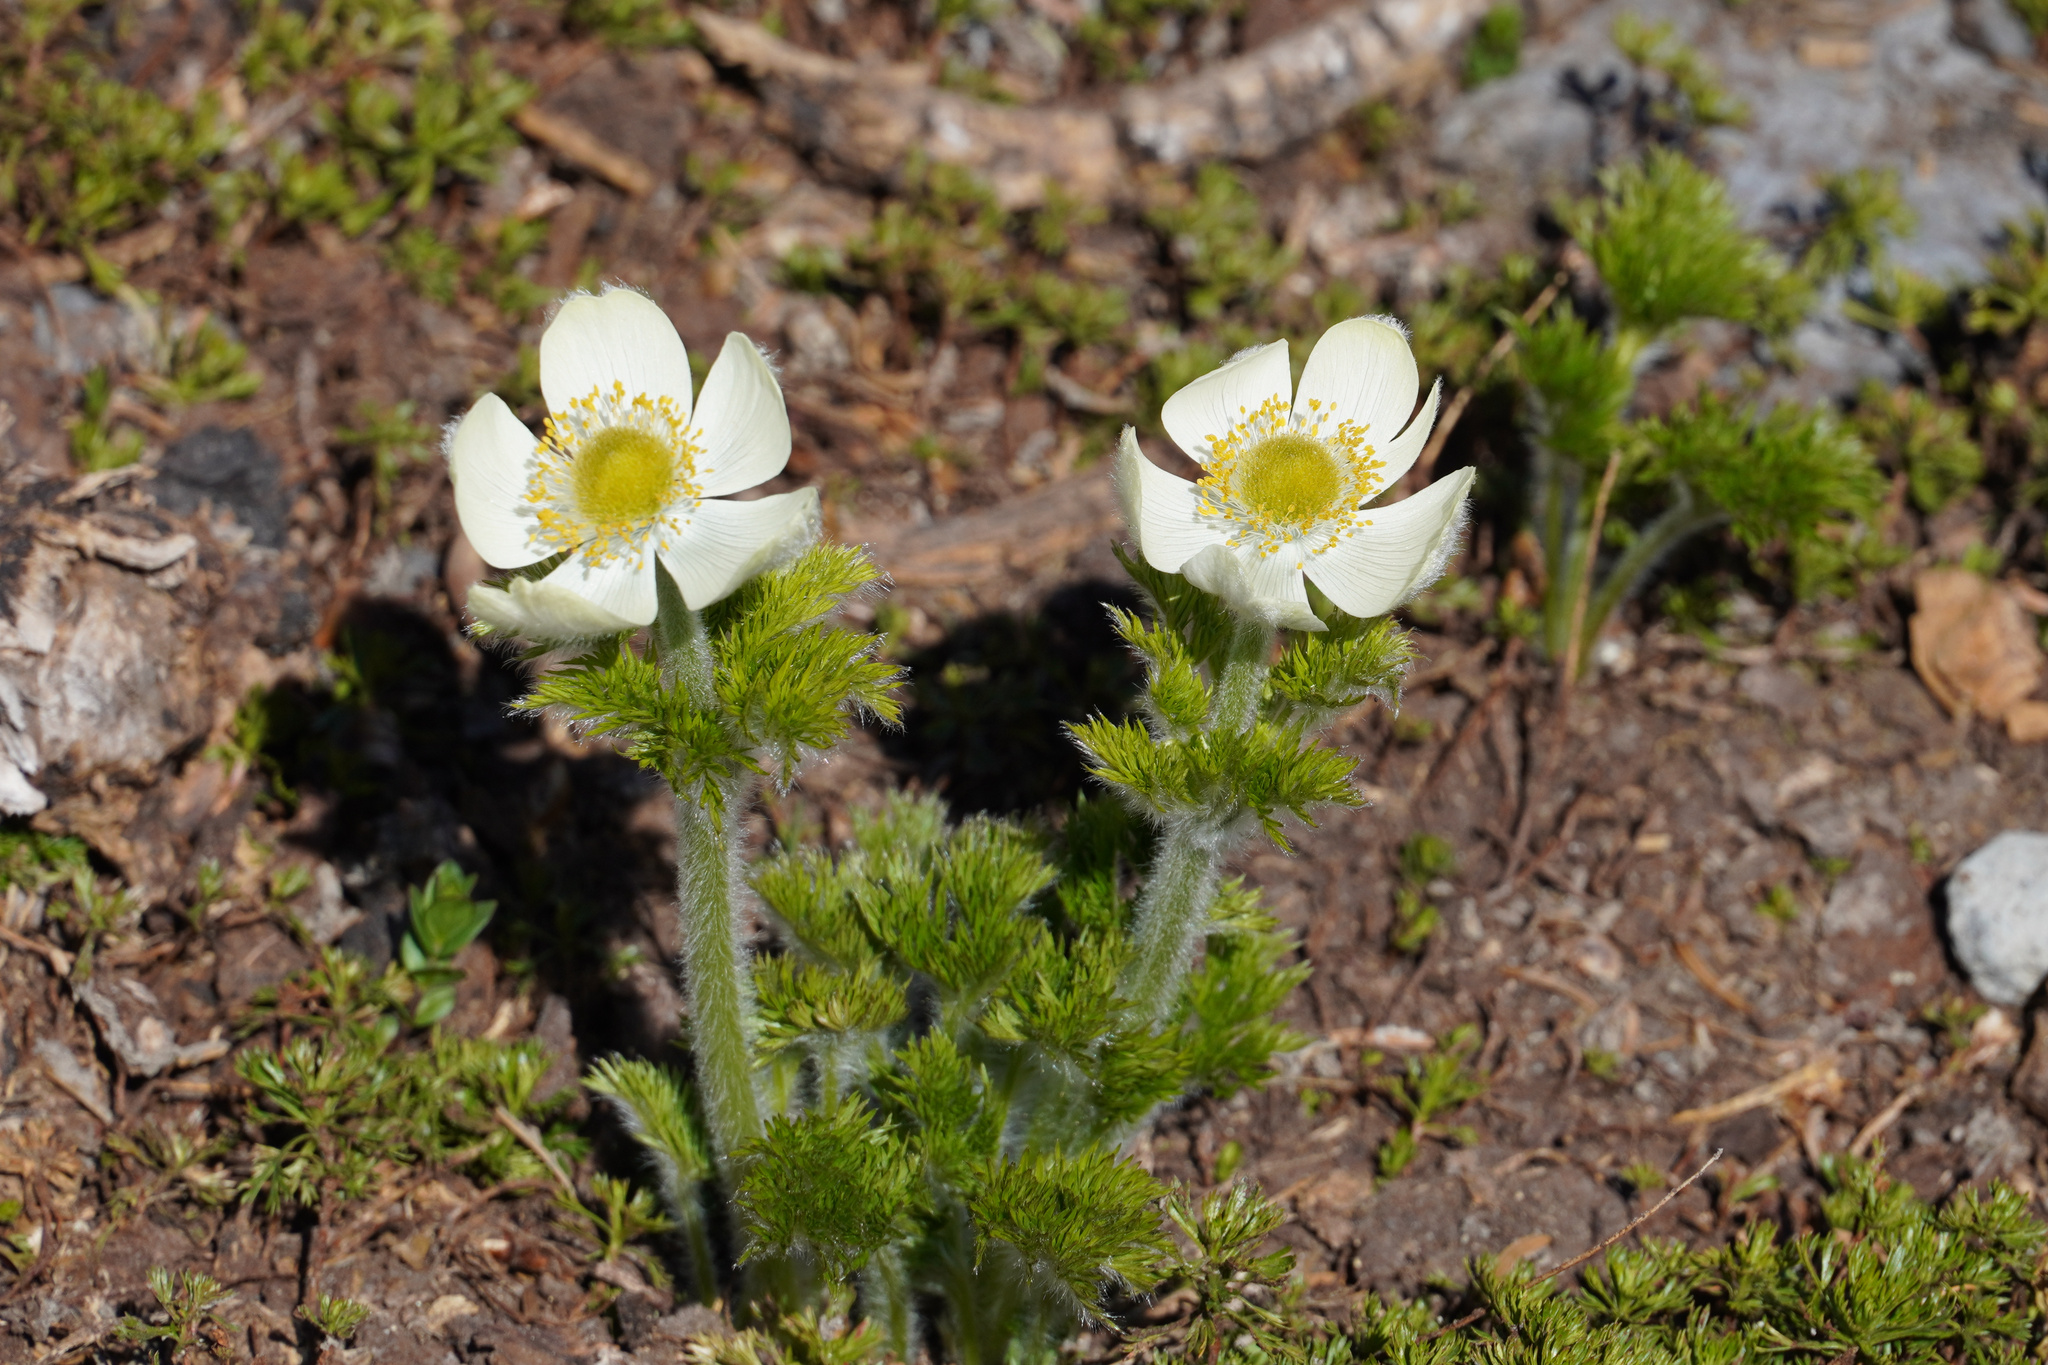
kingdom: Plantae
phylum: Tracheophyta
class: Magnoliopsida
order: Ranunculales
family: Ranunculaceae
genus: Pulsatilla
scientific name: Pulsatilla occidentalis
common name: Mountain pasqueflower
